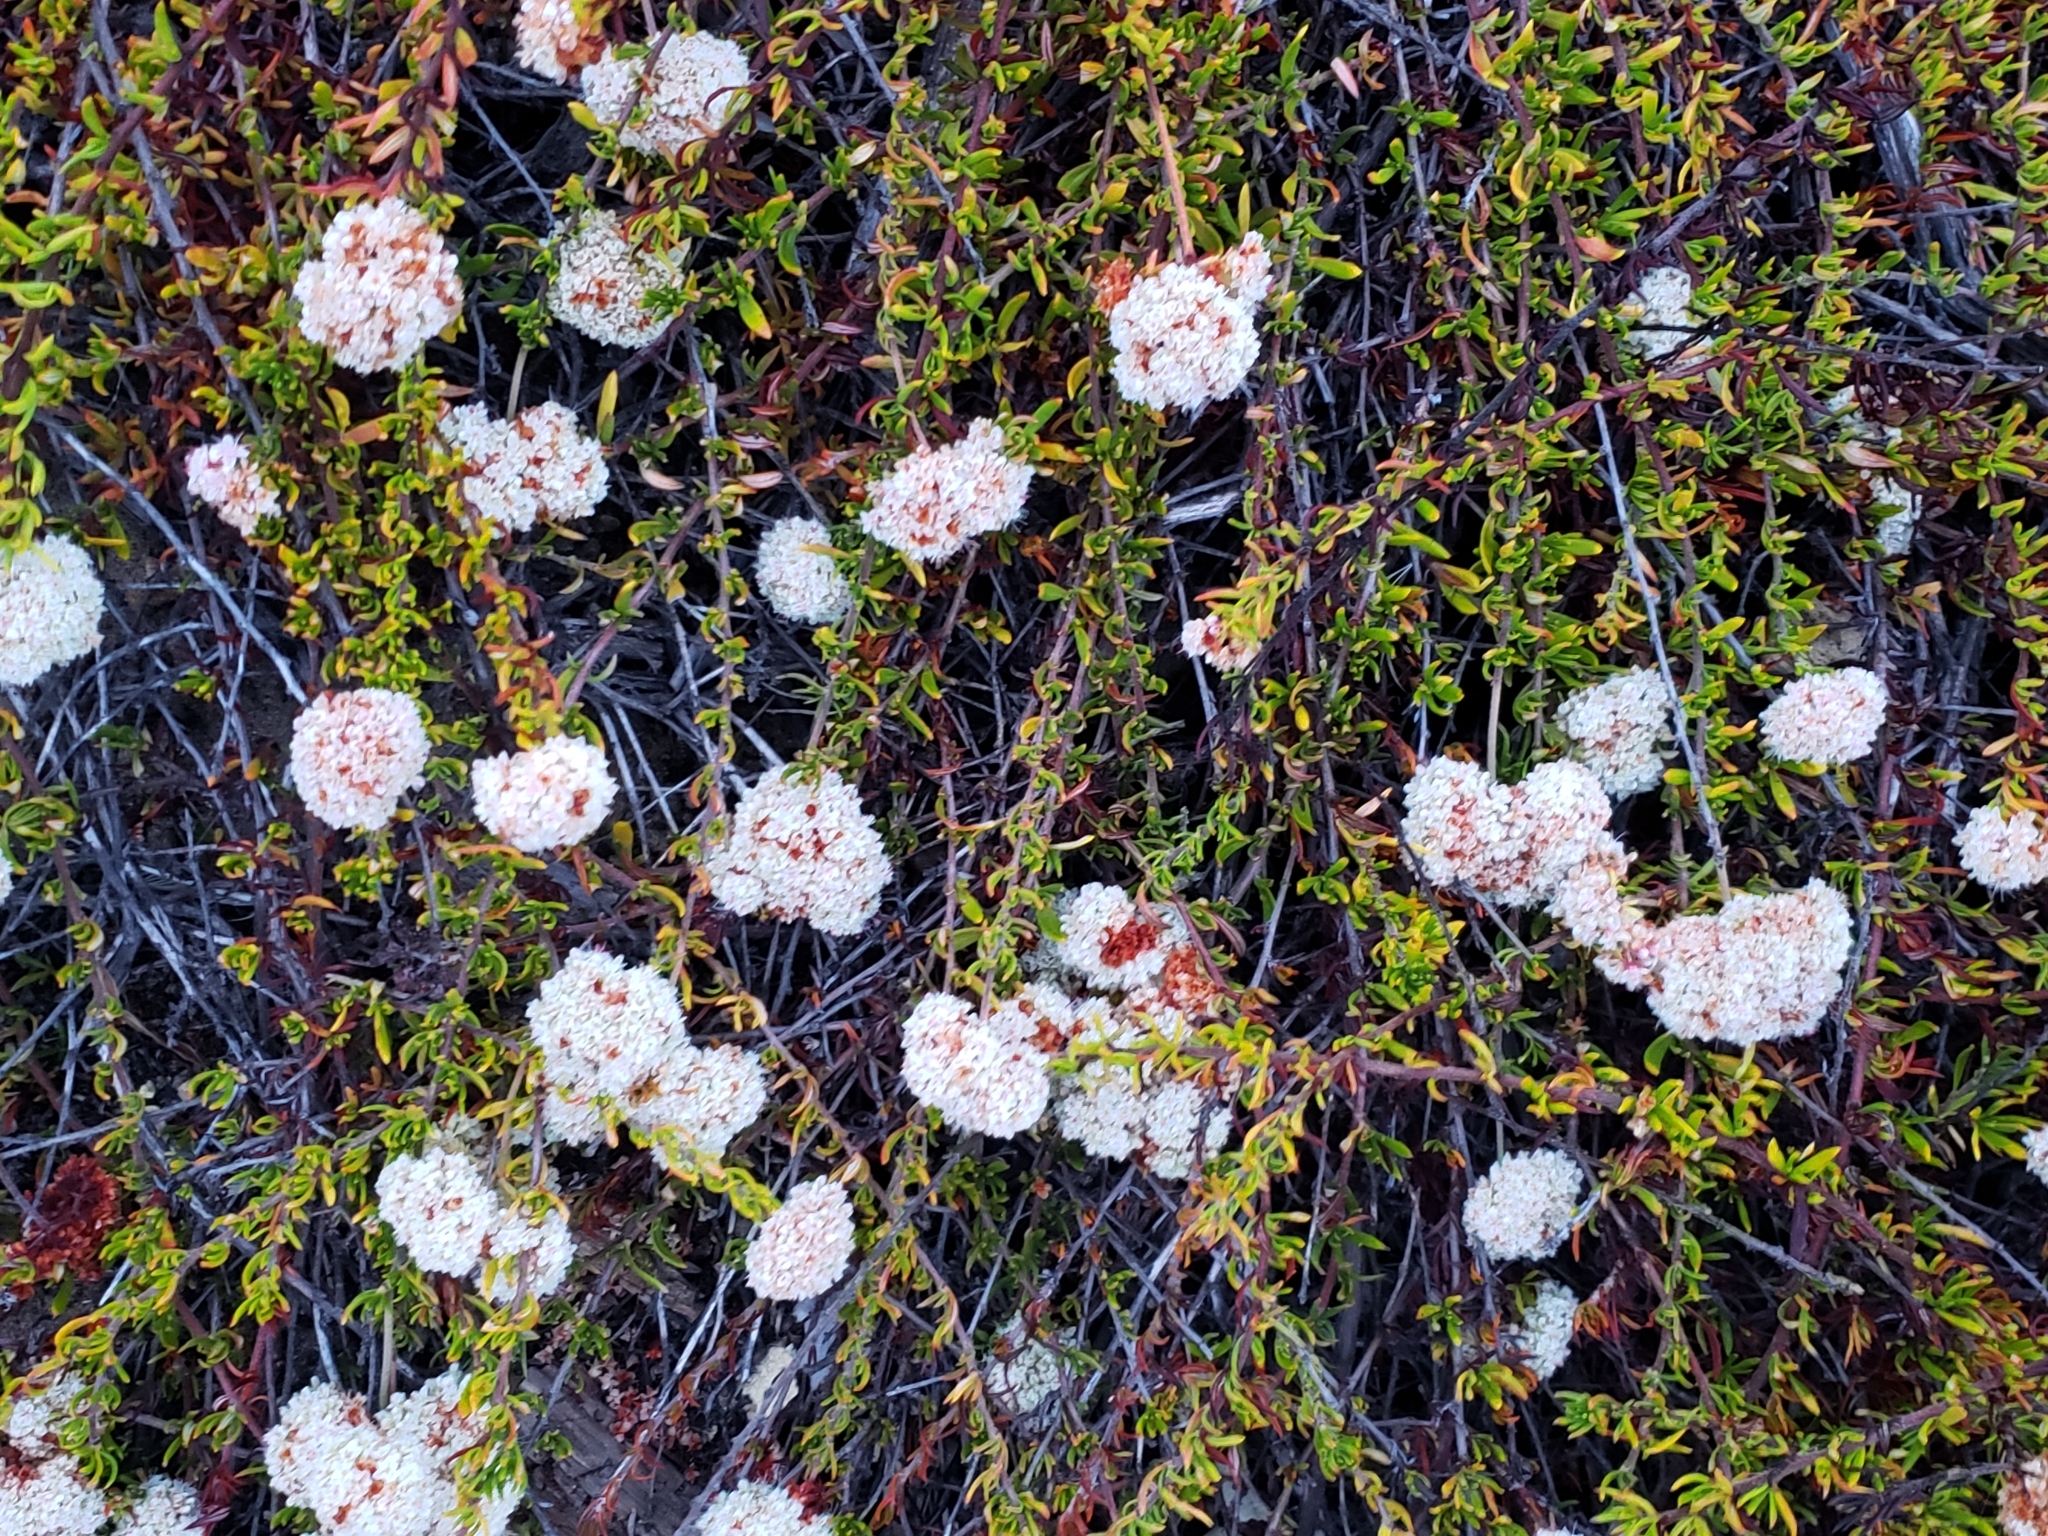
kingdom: Plantae
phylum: Tracheophyta
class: Magnoliopsida
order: Caryophyllales
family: Polygonaceae
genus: Eriogonum
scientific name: Eriogonum fasciculatum
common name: California wild buckwheat
